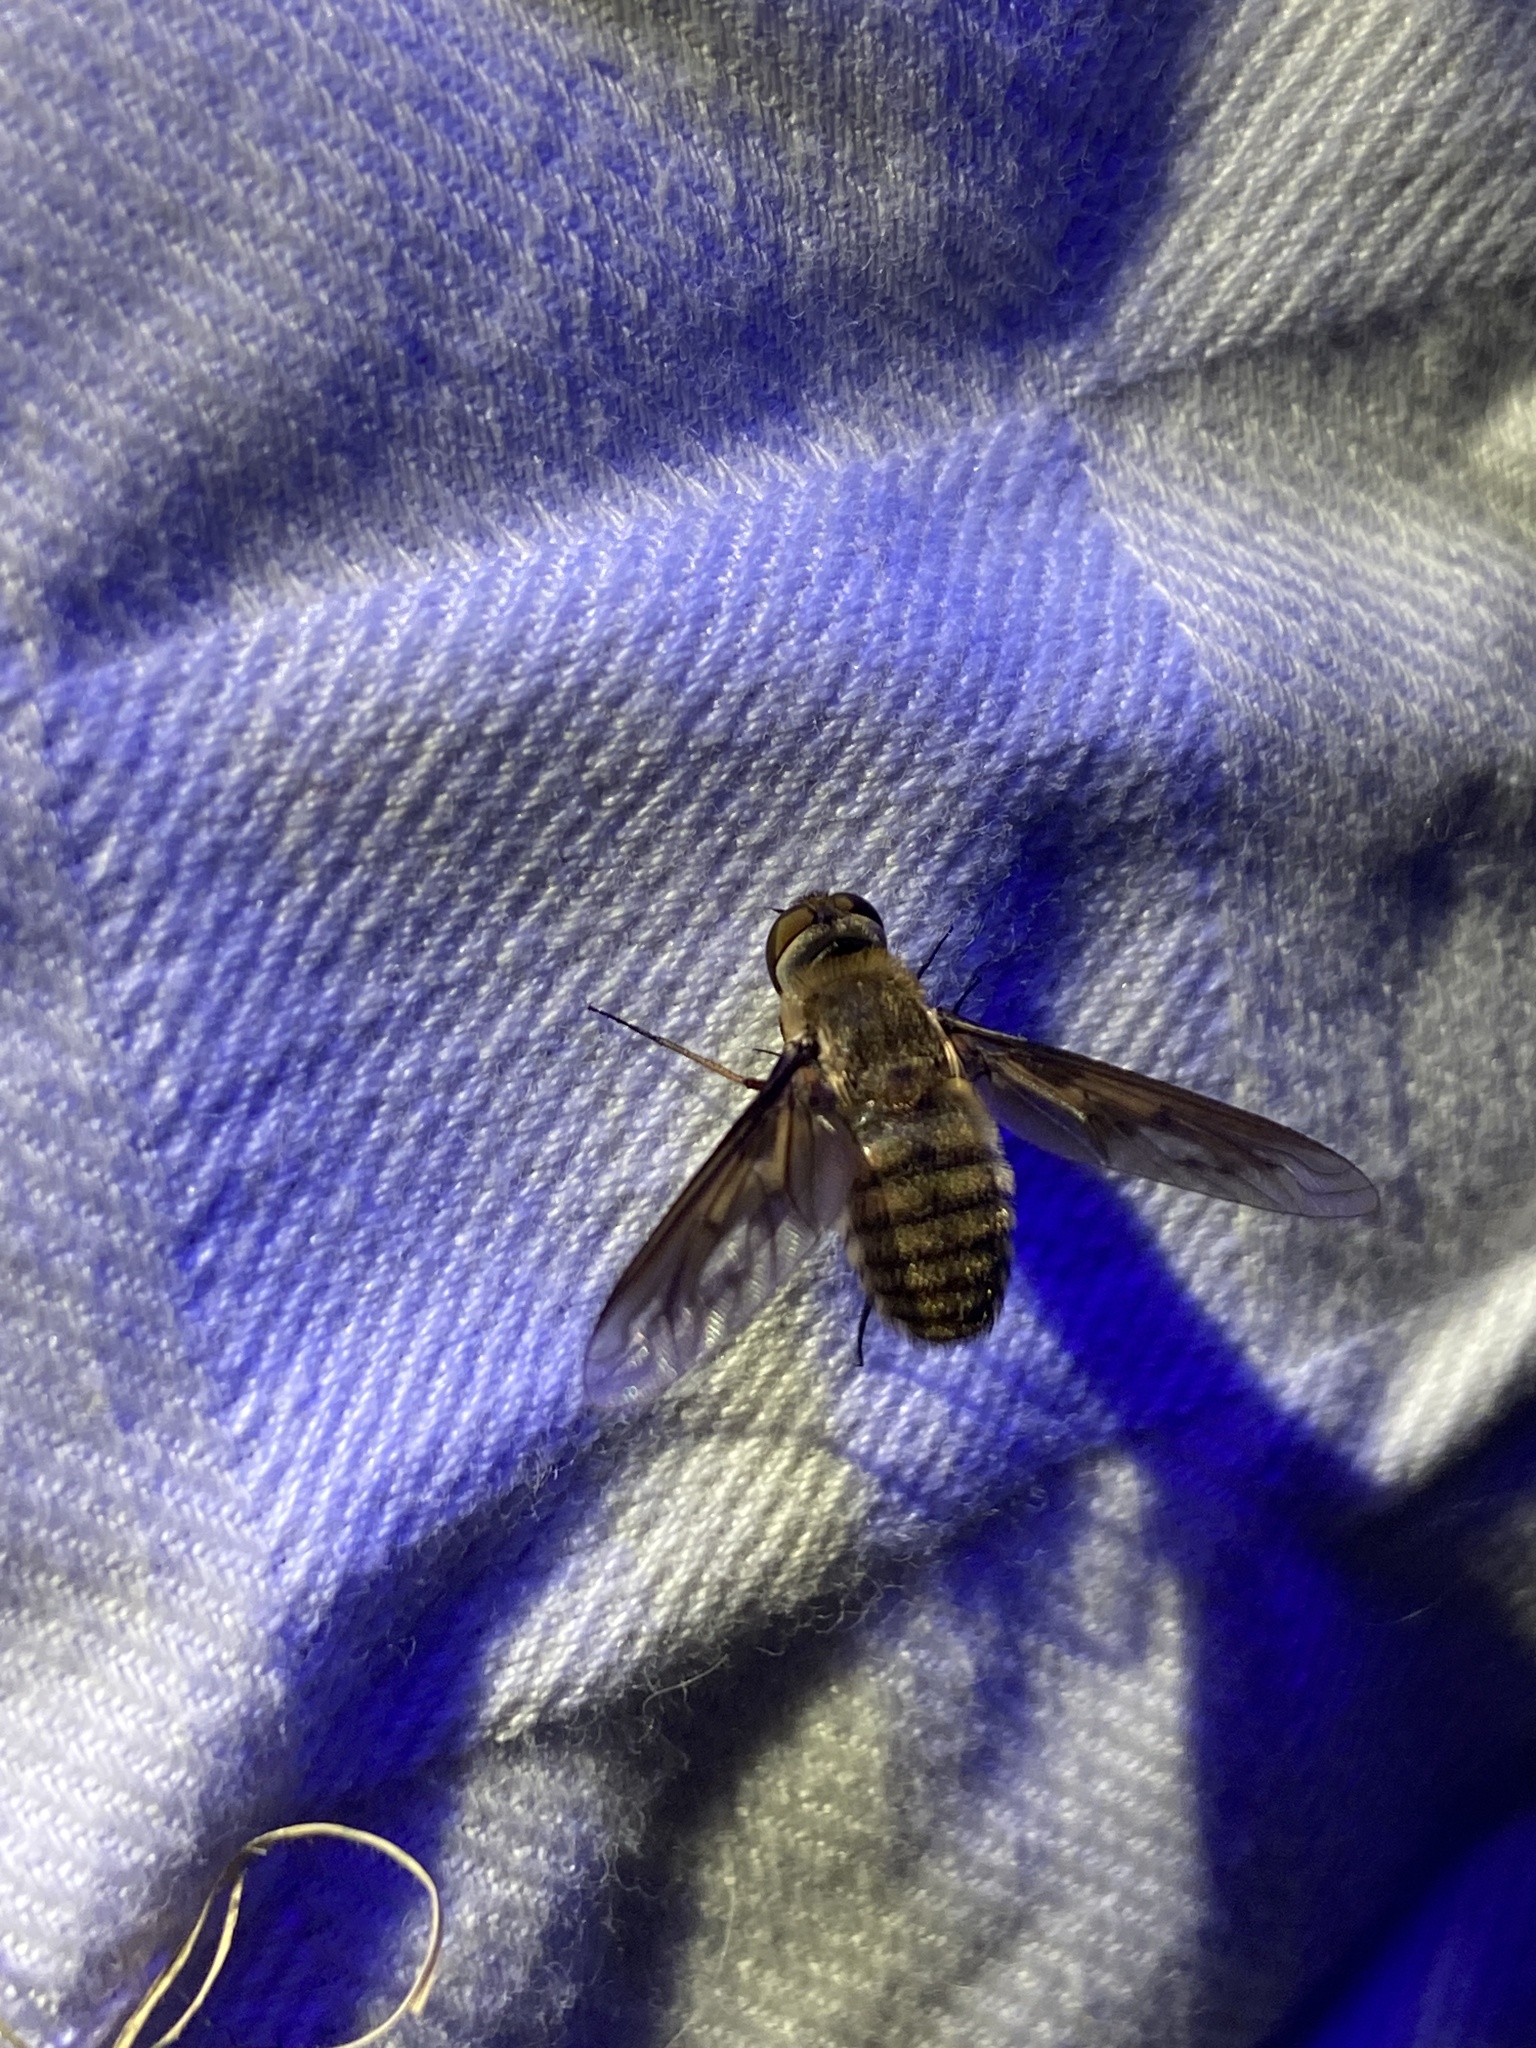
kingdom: Animalia
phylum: Arthropoda
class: Insecta
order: Diptera
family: Bombyliidae
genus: Poecilanthrax
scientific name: Poecilanthrax lucifer
